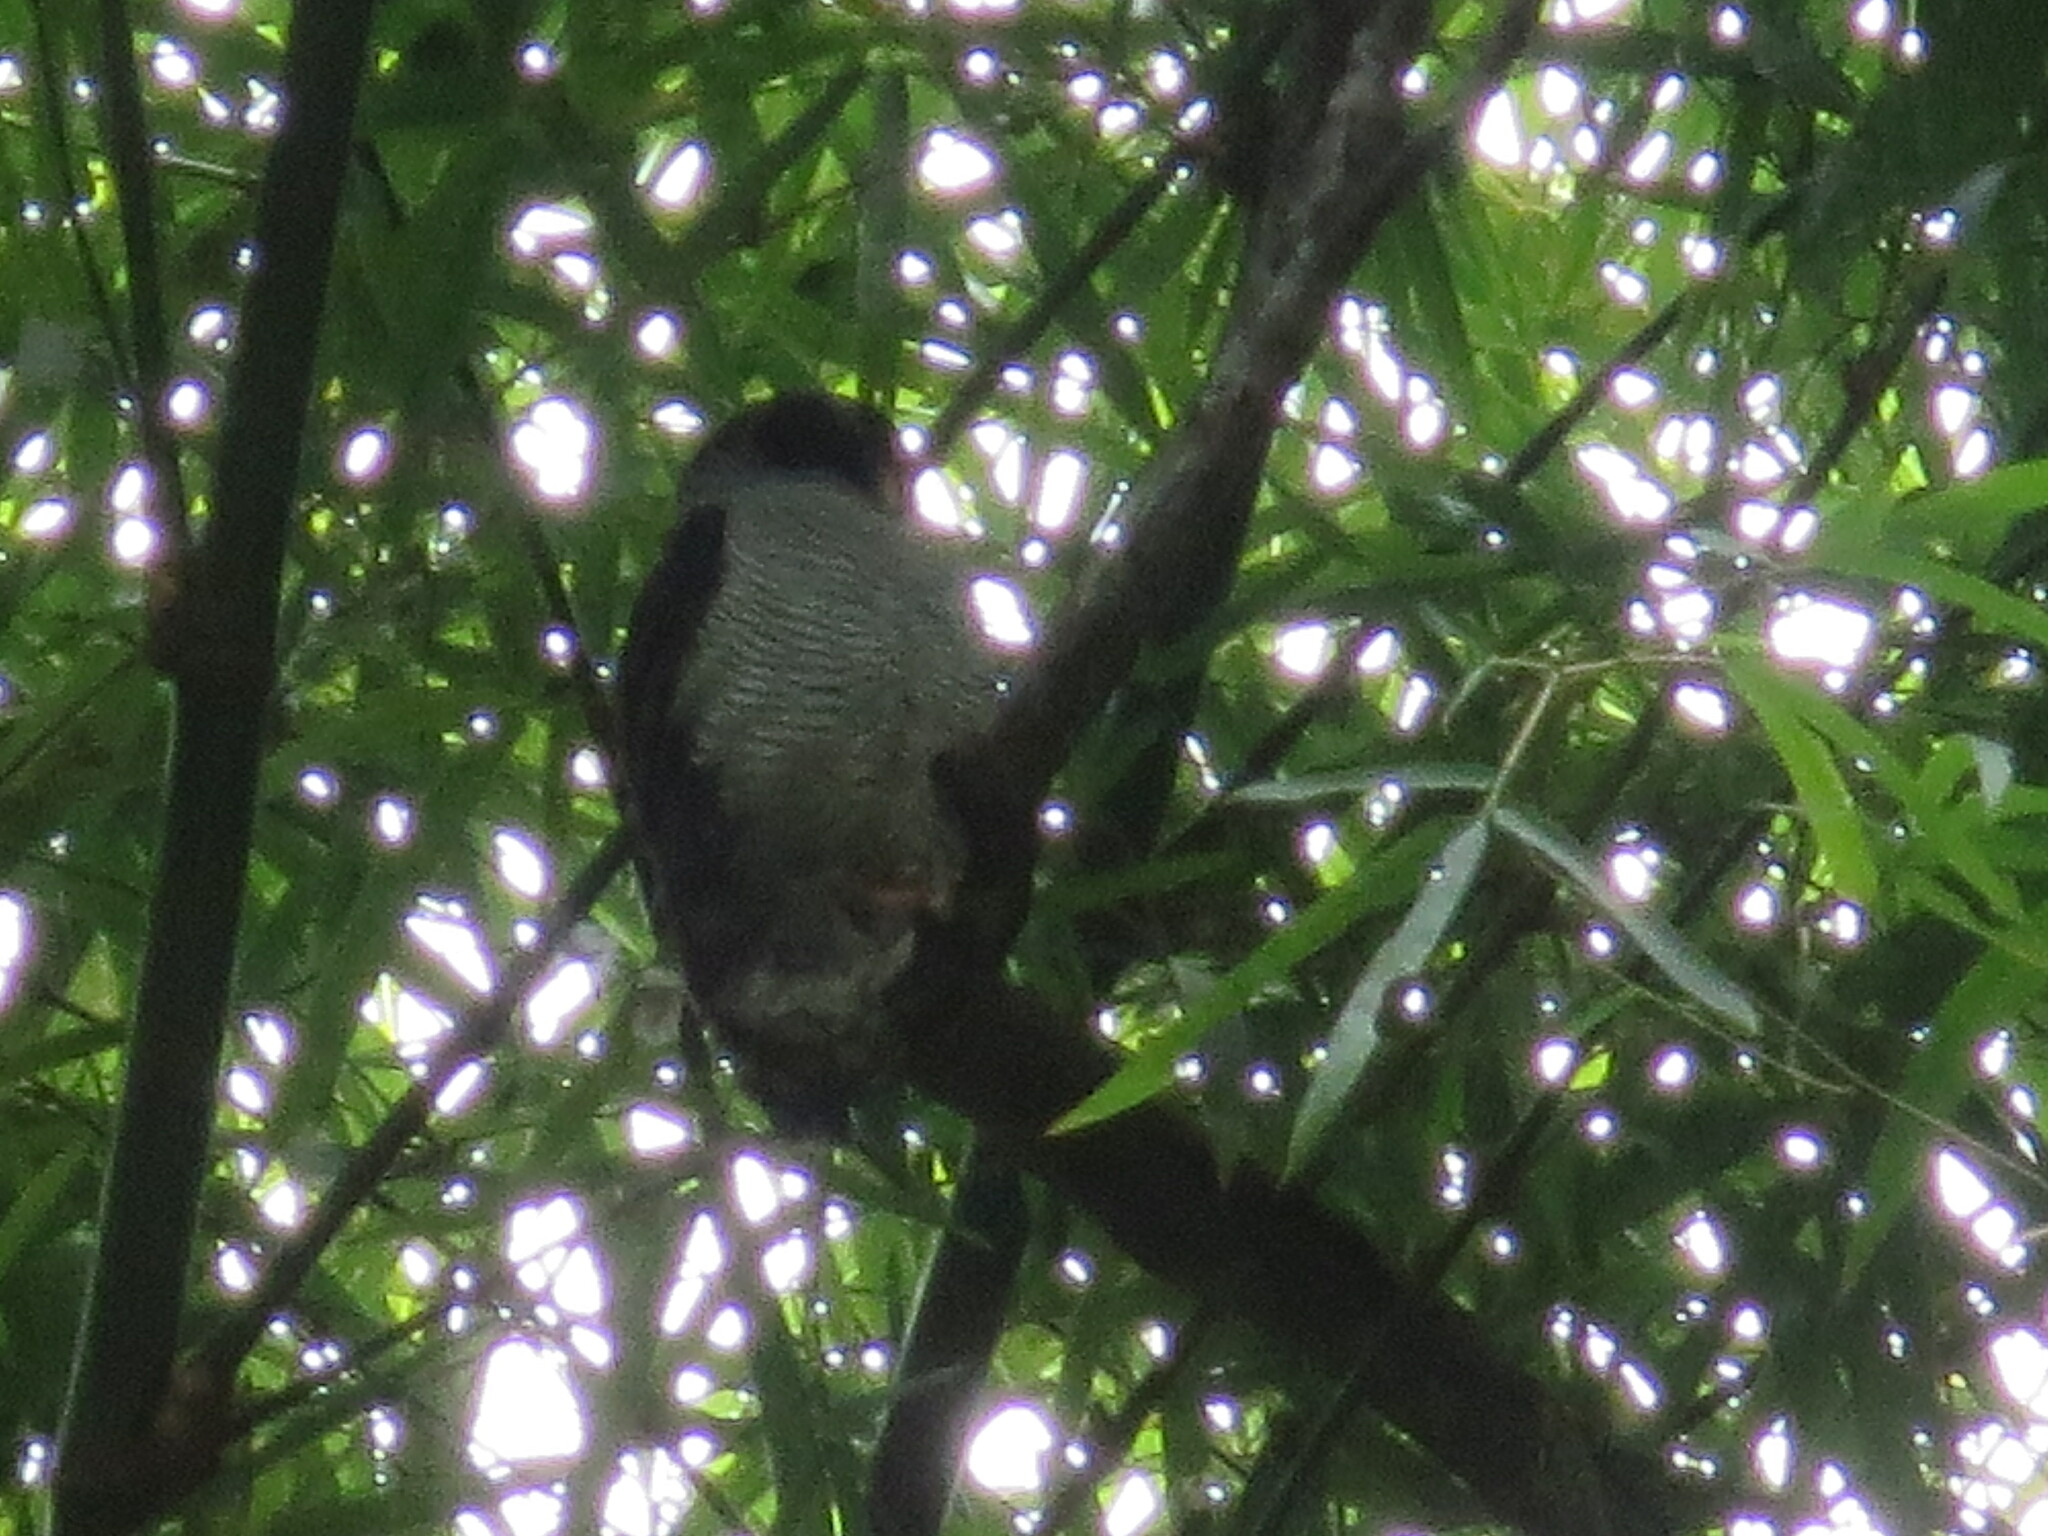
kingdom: Animalia
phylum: Chordata
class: Aves
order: Strigiformes
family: Strigidae
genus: Strix
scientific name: Strix nigrolineata
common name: Black-and-white owl
